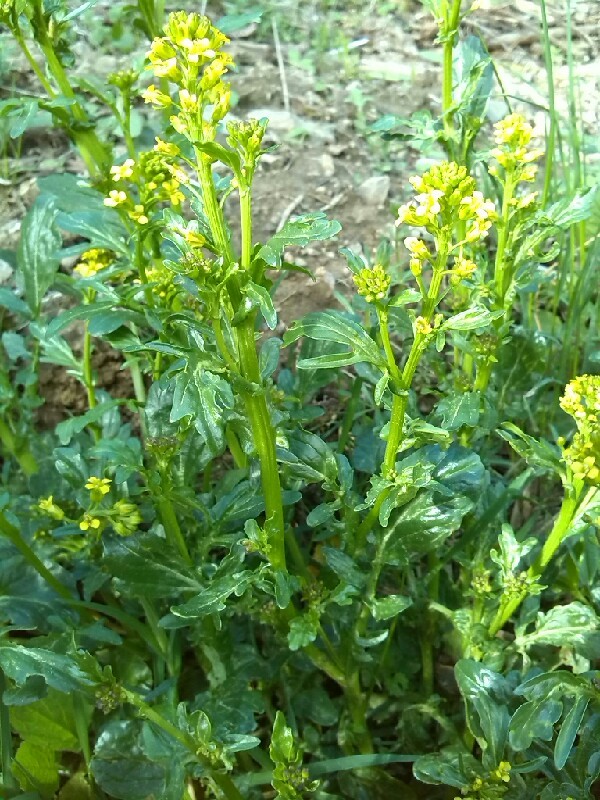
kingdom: Plantae
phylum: Tracheophyta
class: Magnoliopsida
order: Brassicales
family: Brassicaceae
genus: Barbarea
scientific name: Barbarea vulgaris
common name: Cressy-greens
